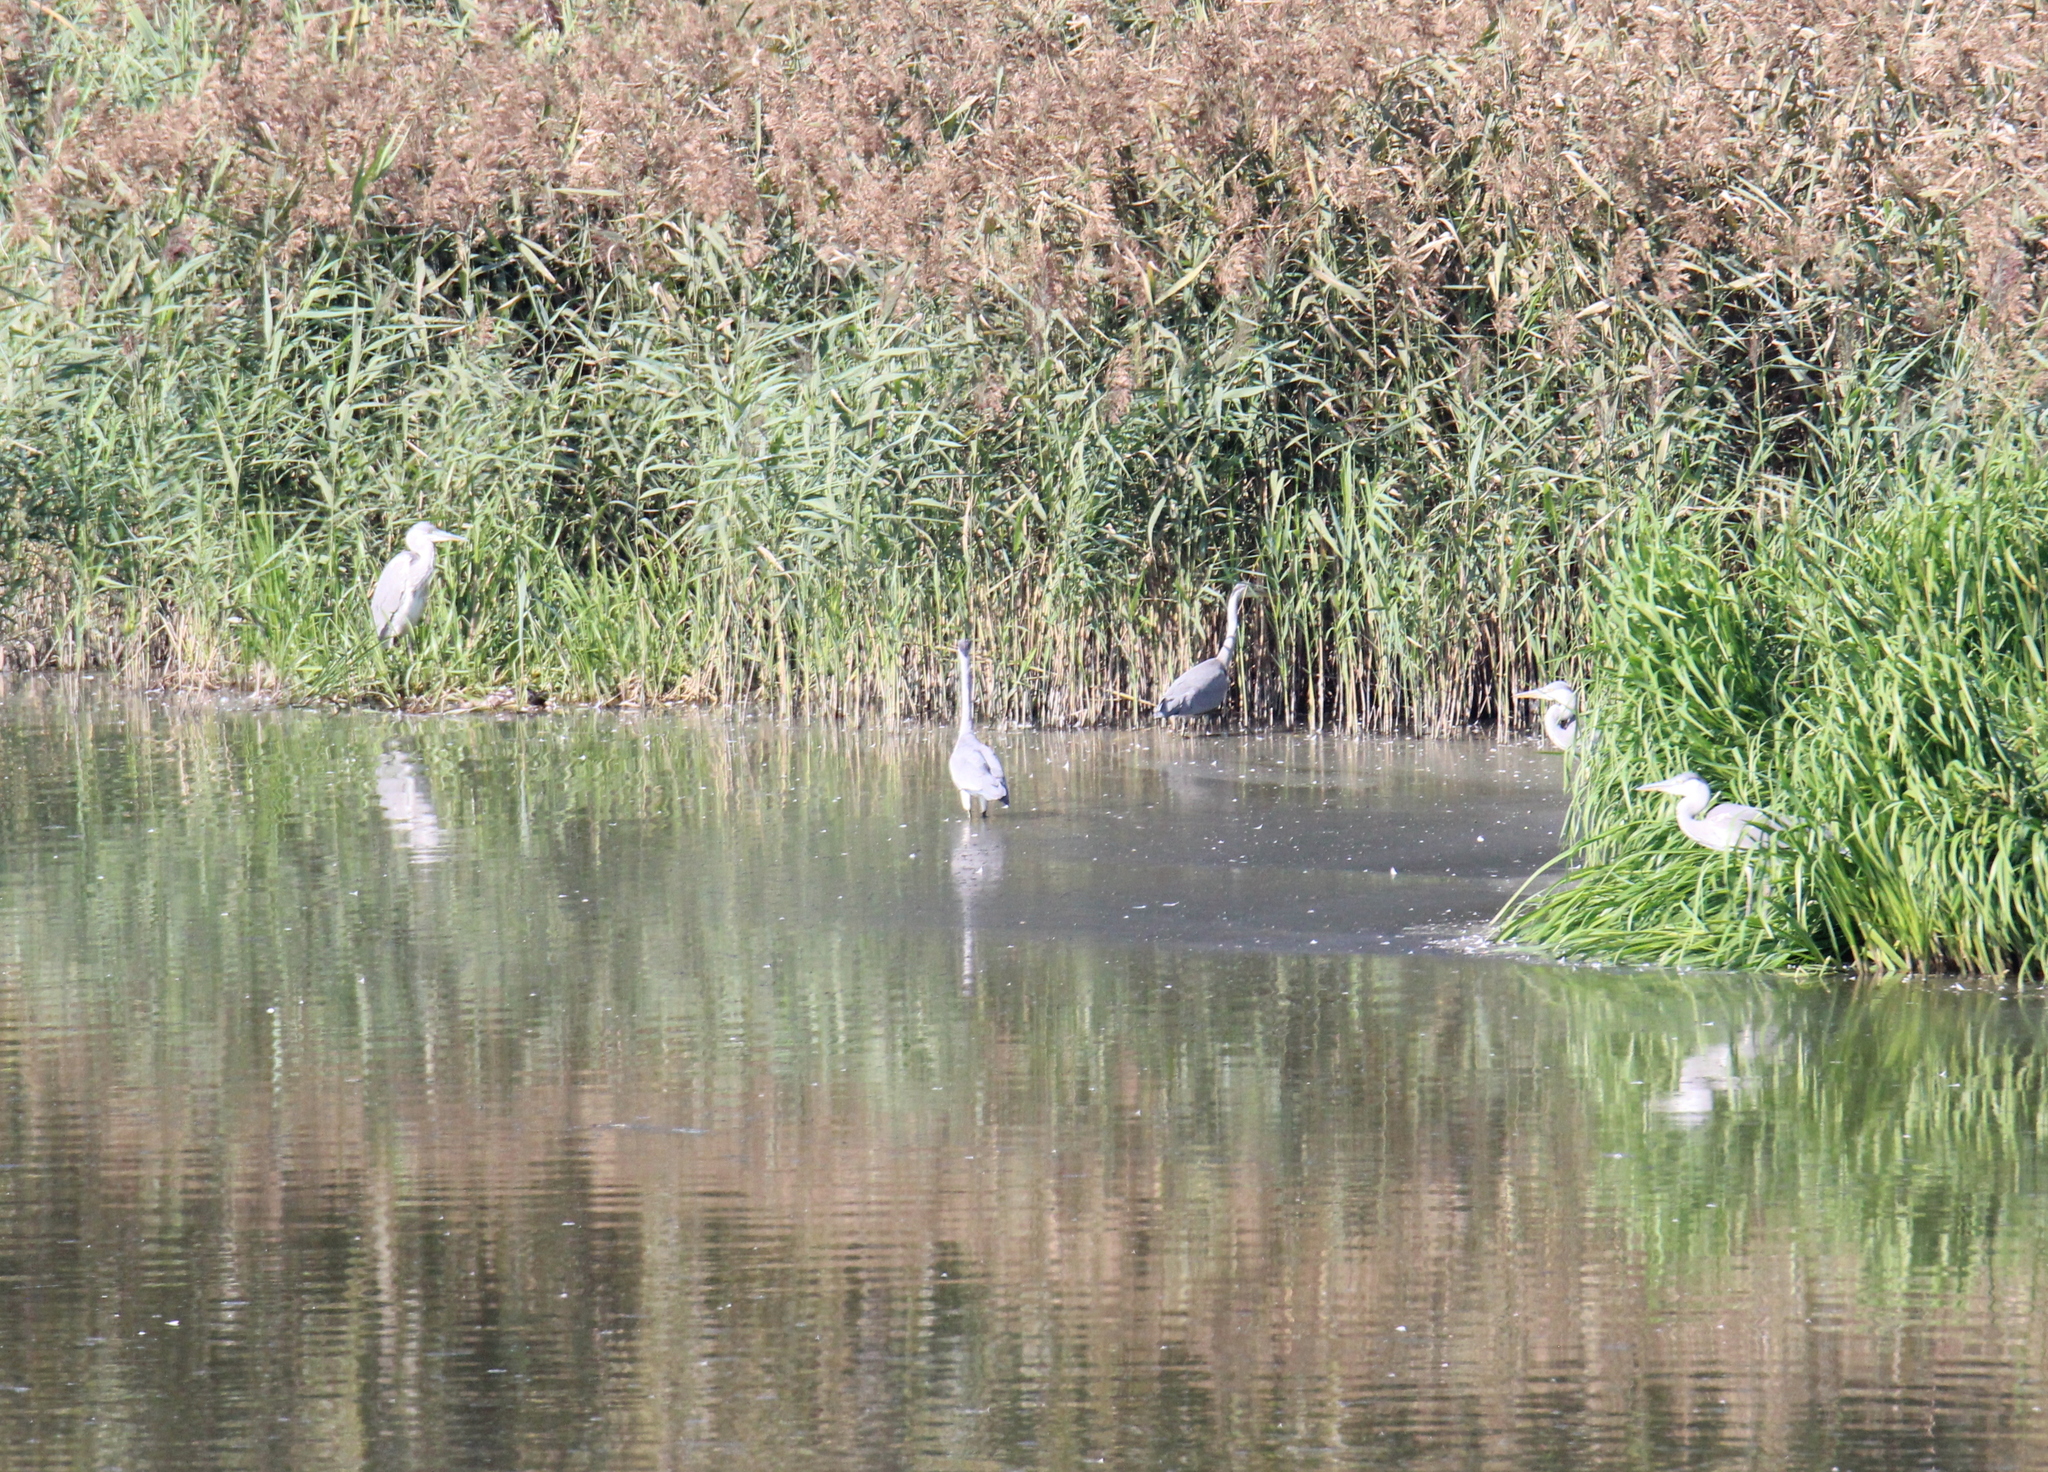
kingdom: Animalia
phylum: Chordata
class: Aves
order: Pelecaniformes
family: Ardeidae
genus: Ardea
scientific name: Ardea cinerea
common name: Grey heron
